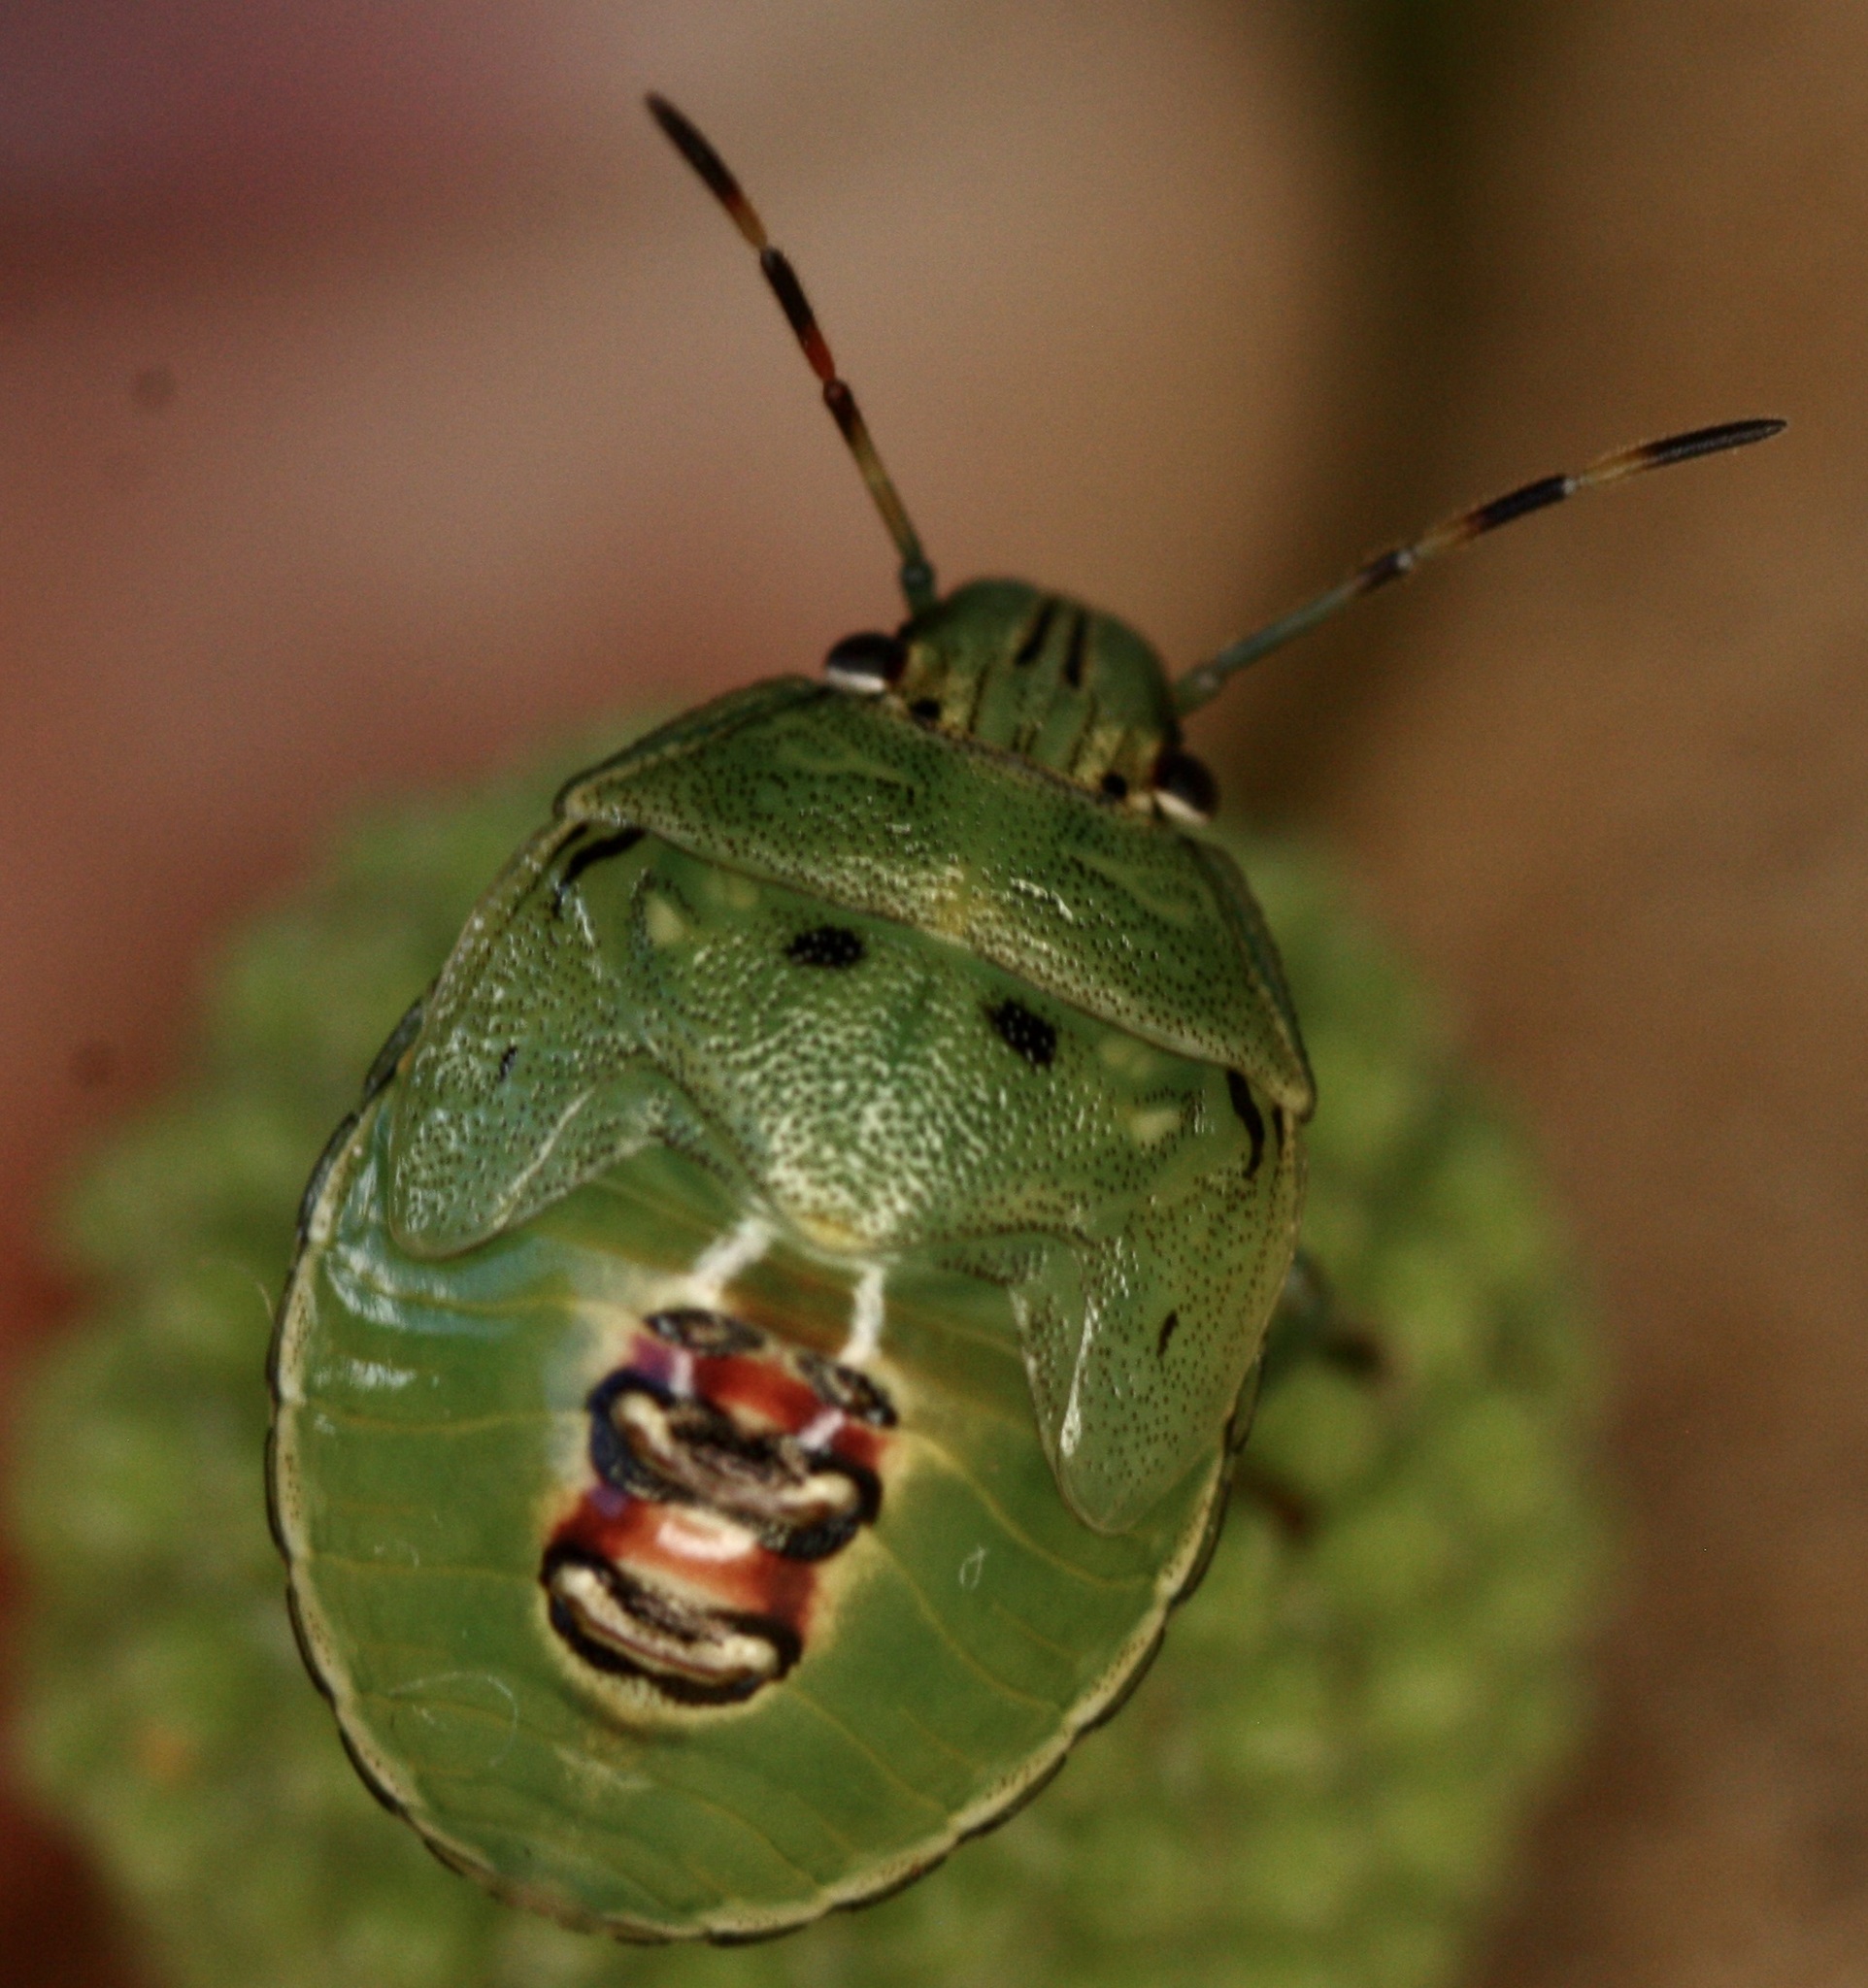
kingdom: Animalia
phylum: Arthropoda
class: Insecta
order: Hemiptera
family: Pentatomidae
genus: Plautia
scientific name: Plautia stali
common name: Stink bug
